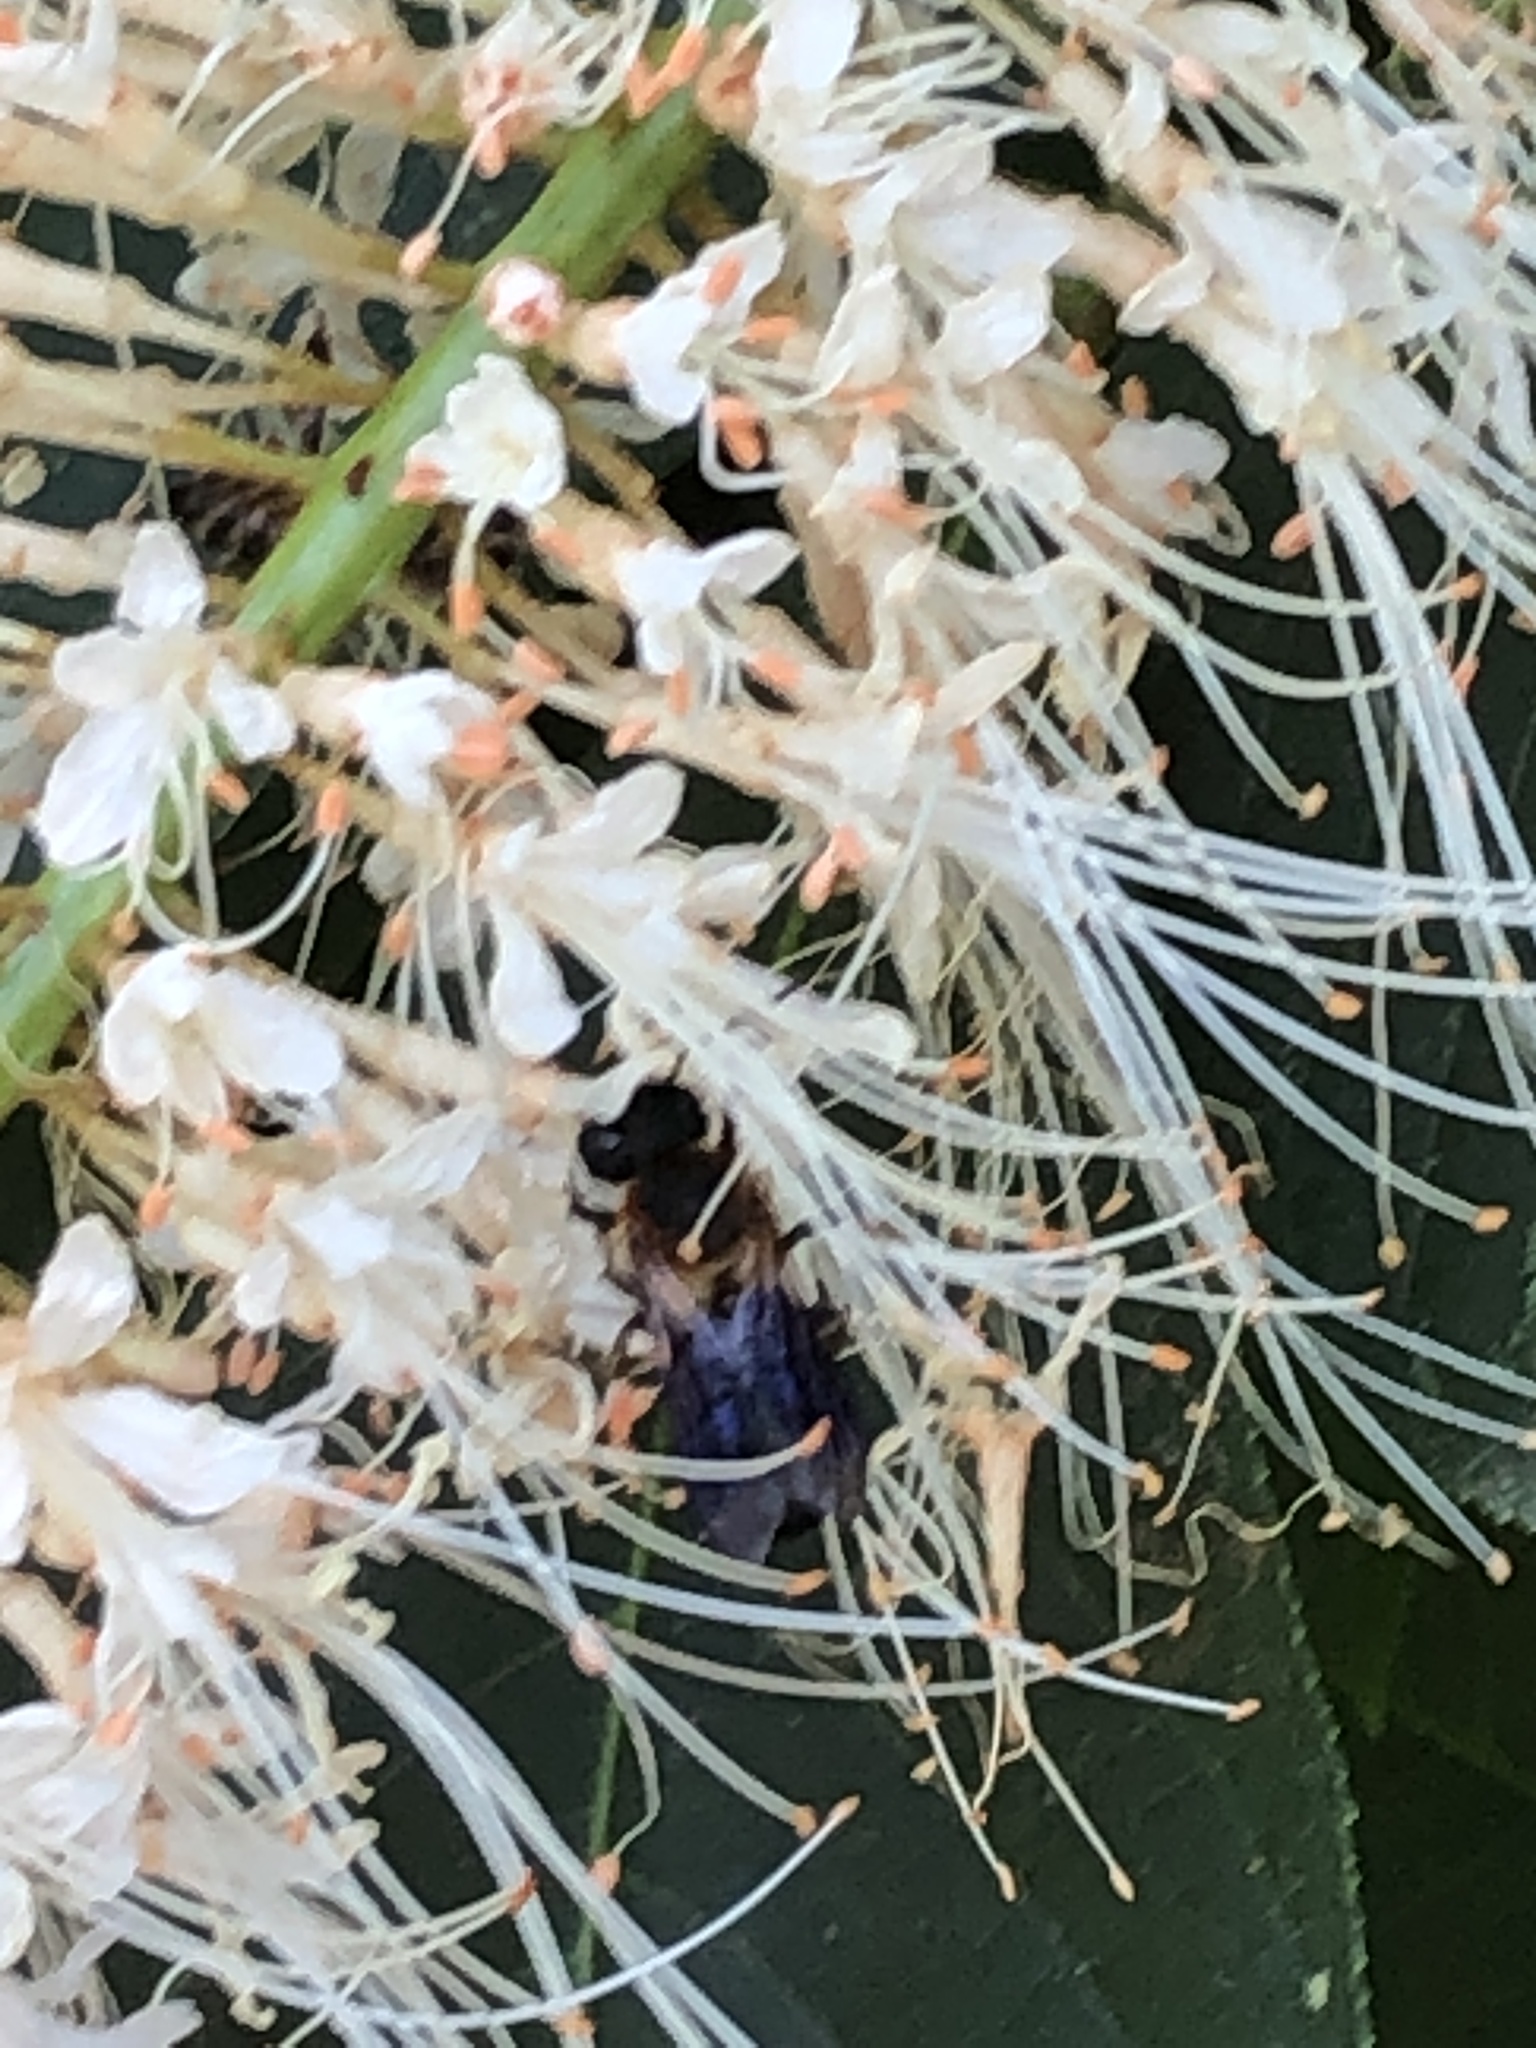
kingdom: Animalia
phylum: Arthropoda
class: Insecta
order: Hymenoptera
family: Megachilidae
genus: Megachile
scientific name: Megachile sculpturalis
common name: Sculptured resin bee
